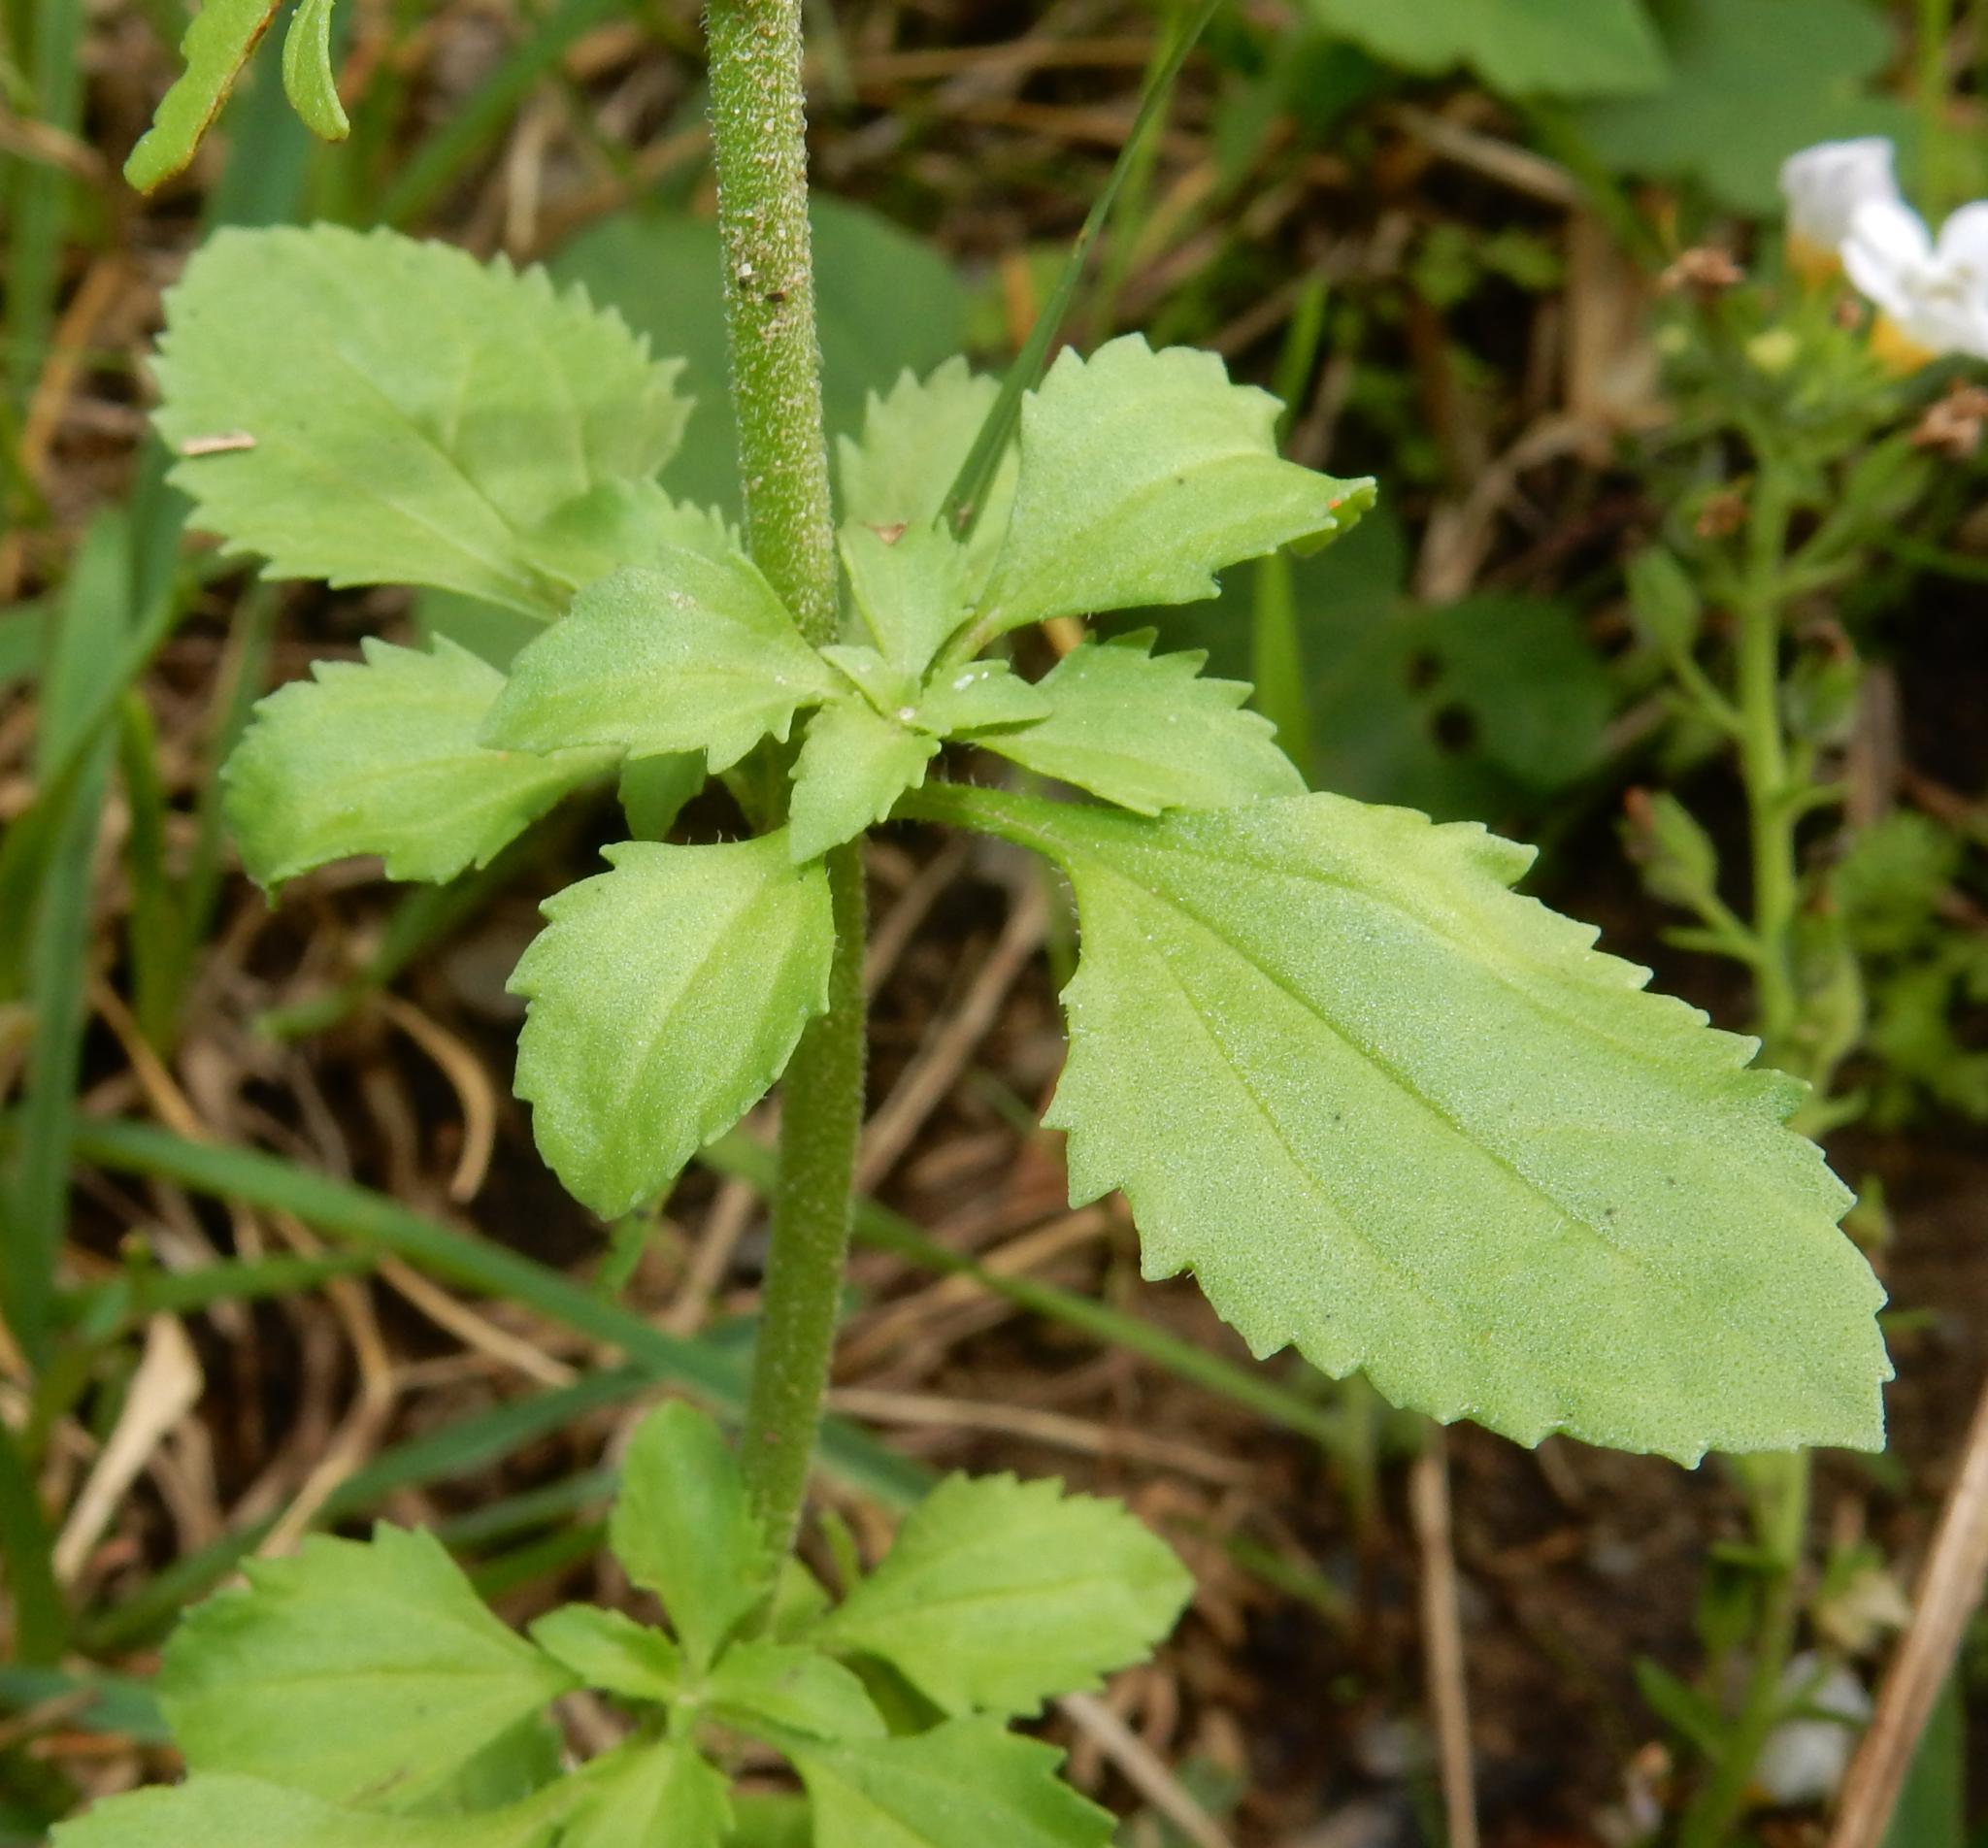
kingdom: Plantae
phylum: Tracheophyta
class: Magnoliopsida
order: Lamiales
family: Scrophulariaceae
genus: Phyllopodium
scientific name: Phyllopodium cuneifolium
